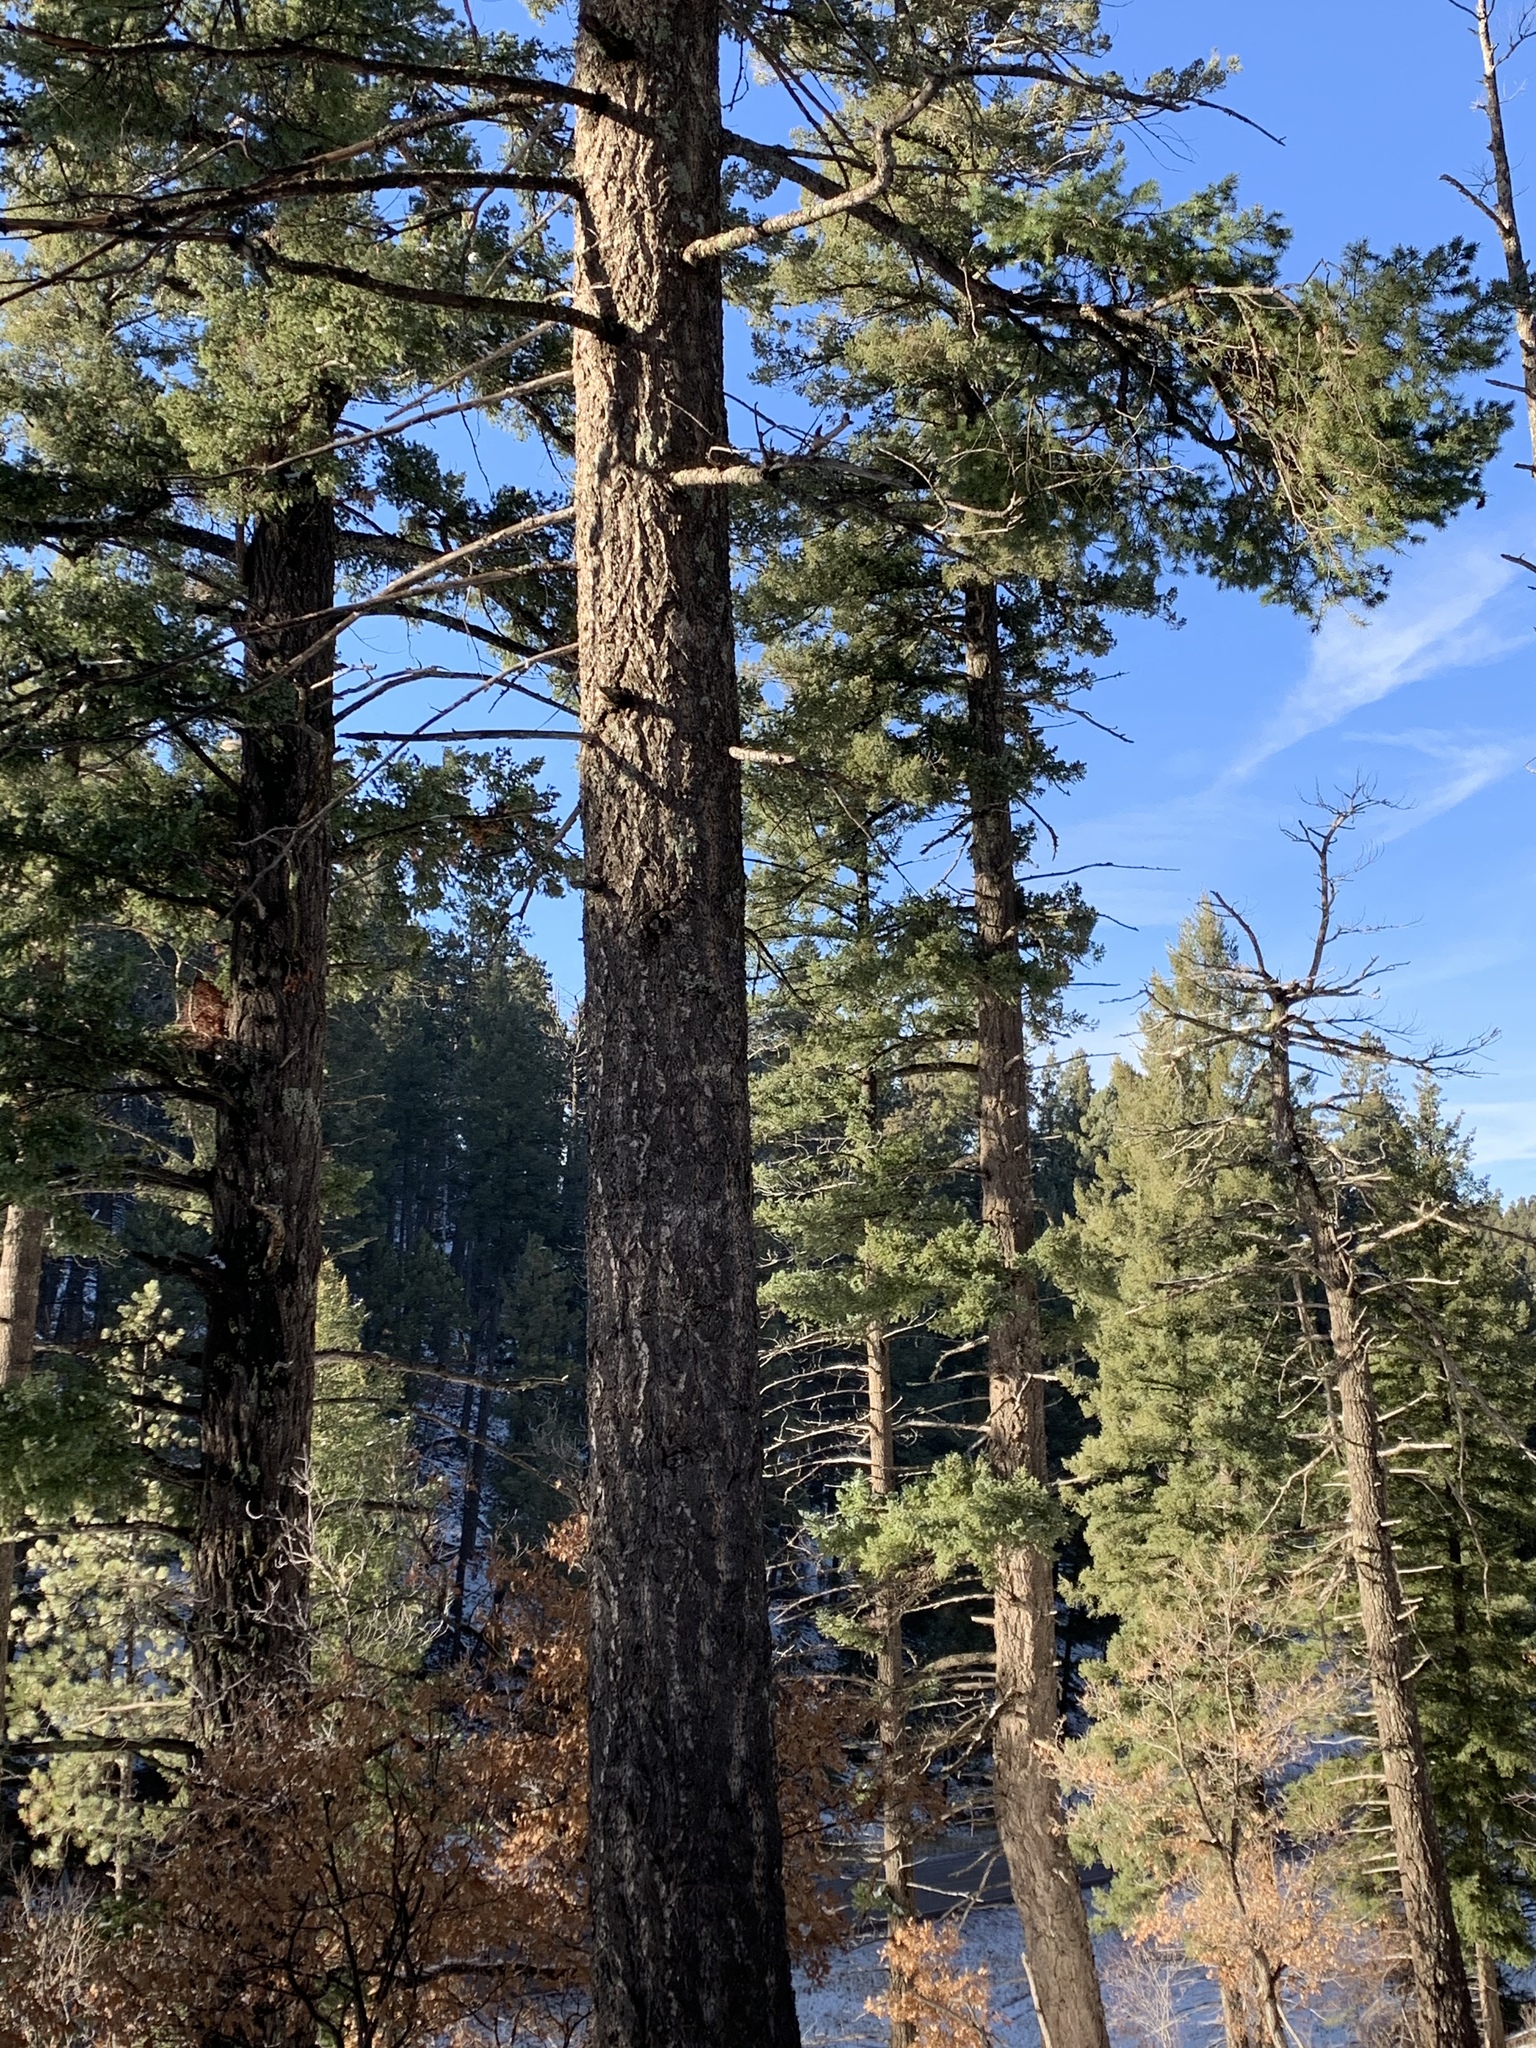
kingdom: Plantae
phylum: Tracheophyta
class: Pinopsida
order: Pinales
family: Pinaceae
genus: Pseudotsuga
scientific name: Pseudotsuga menziesii
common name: Douglas fir
